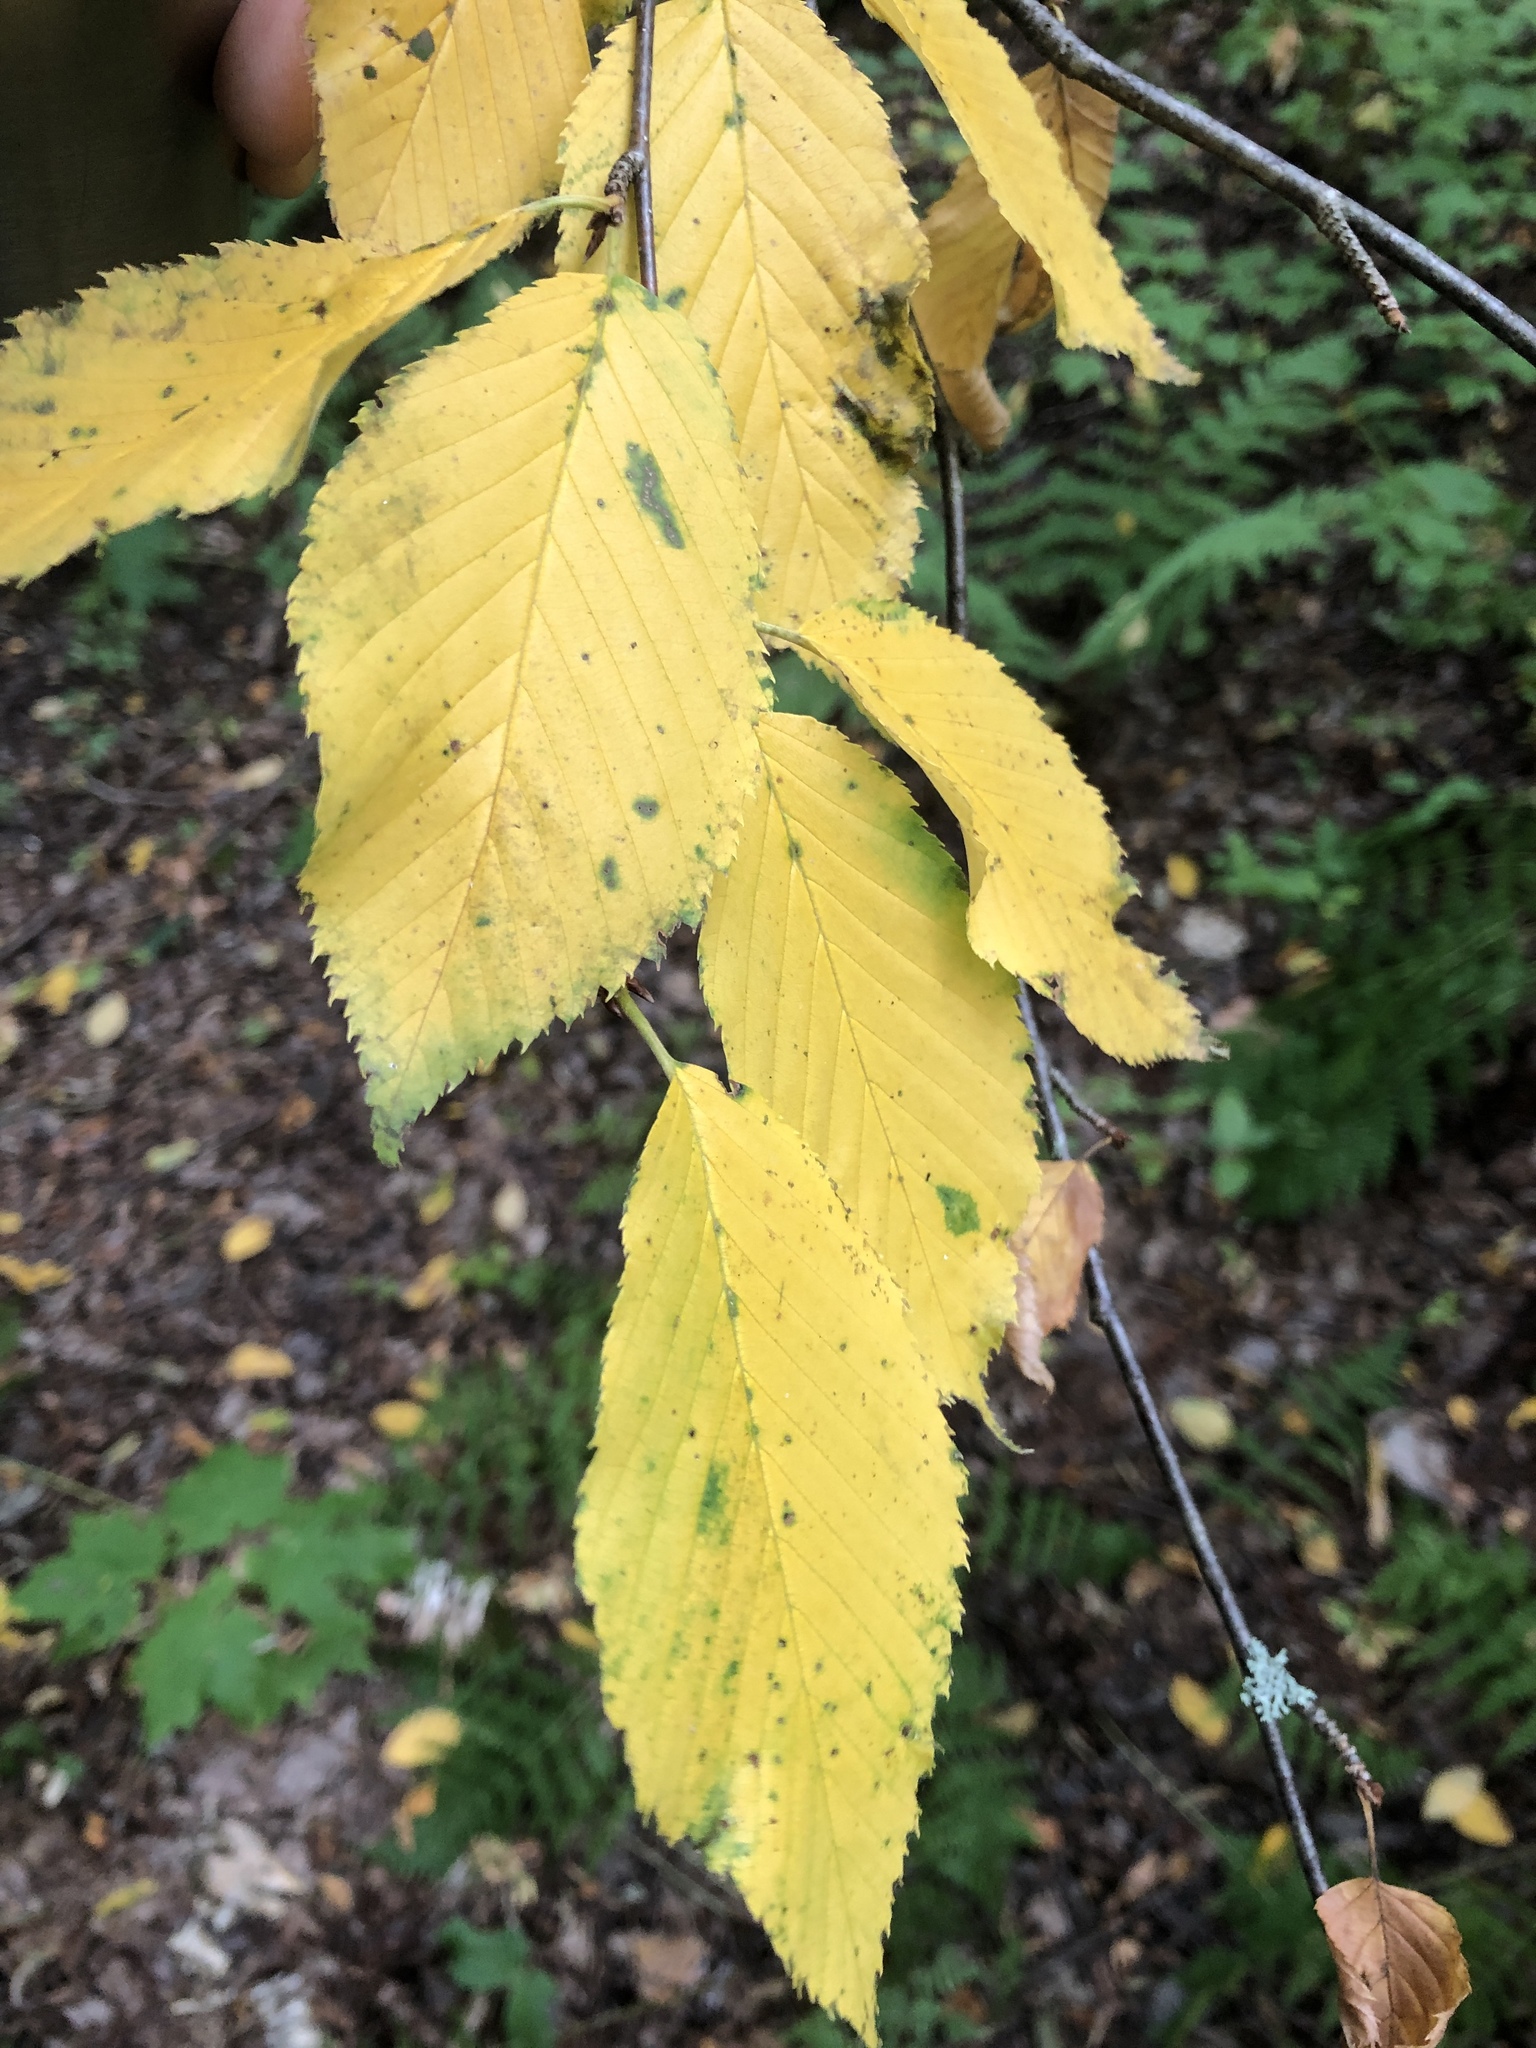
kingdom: Plantae
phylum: Tracheophyta
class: Magnoliopsida
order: Fagales
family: Betulaceae
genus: Betula
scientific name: Betula alleghaniensis
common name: Yellow birch
